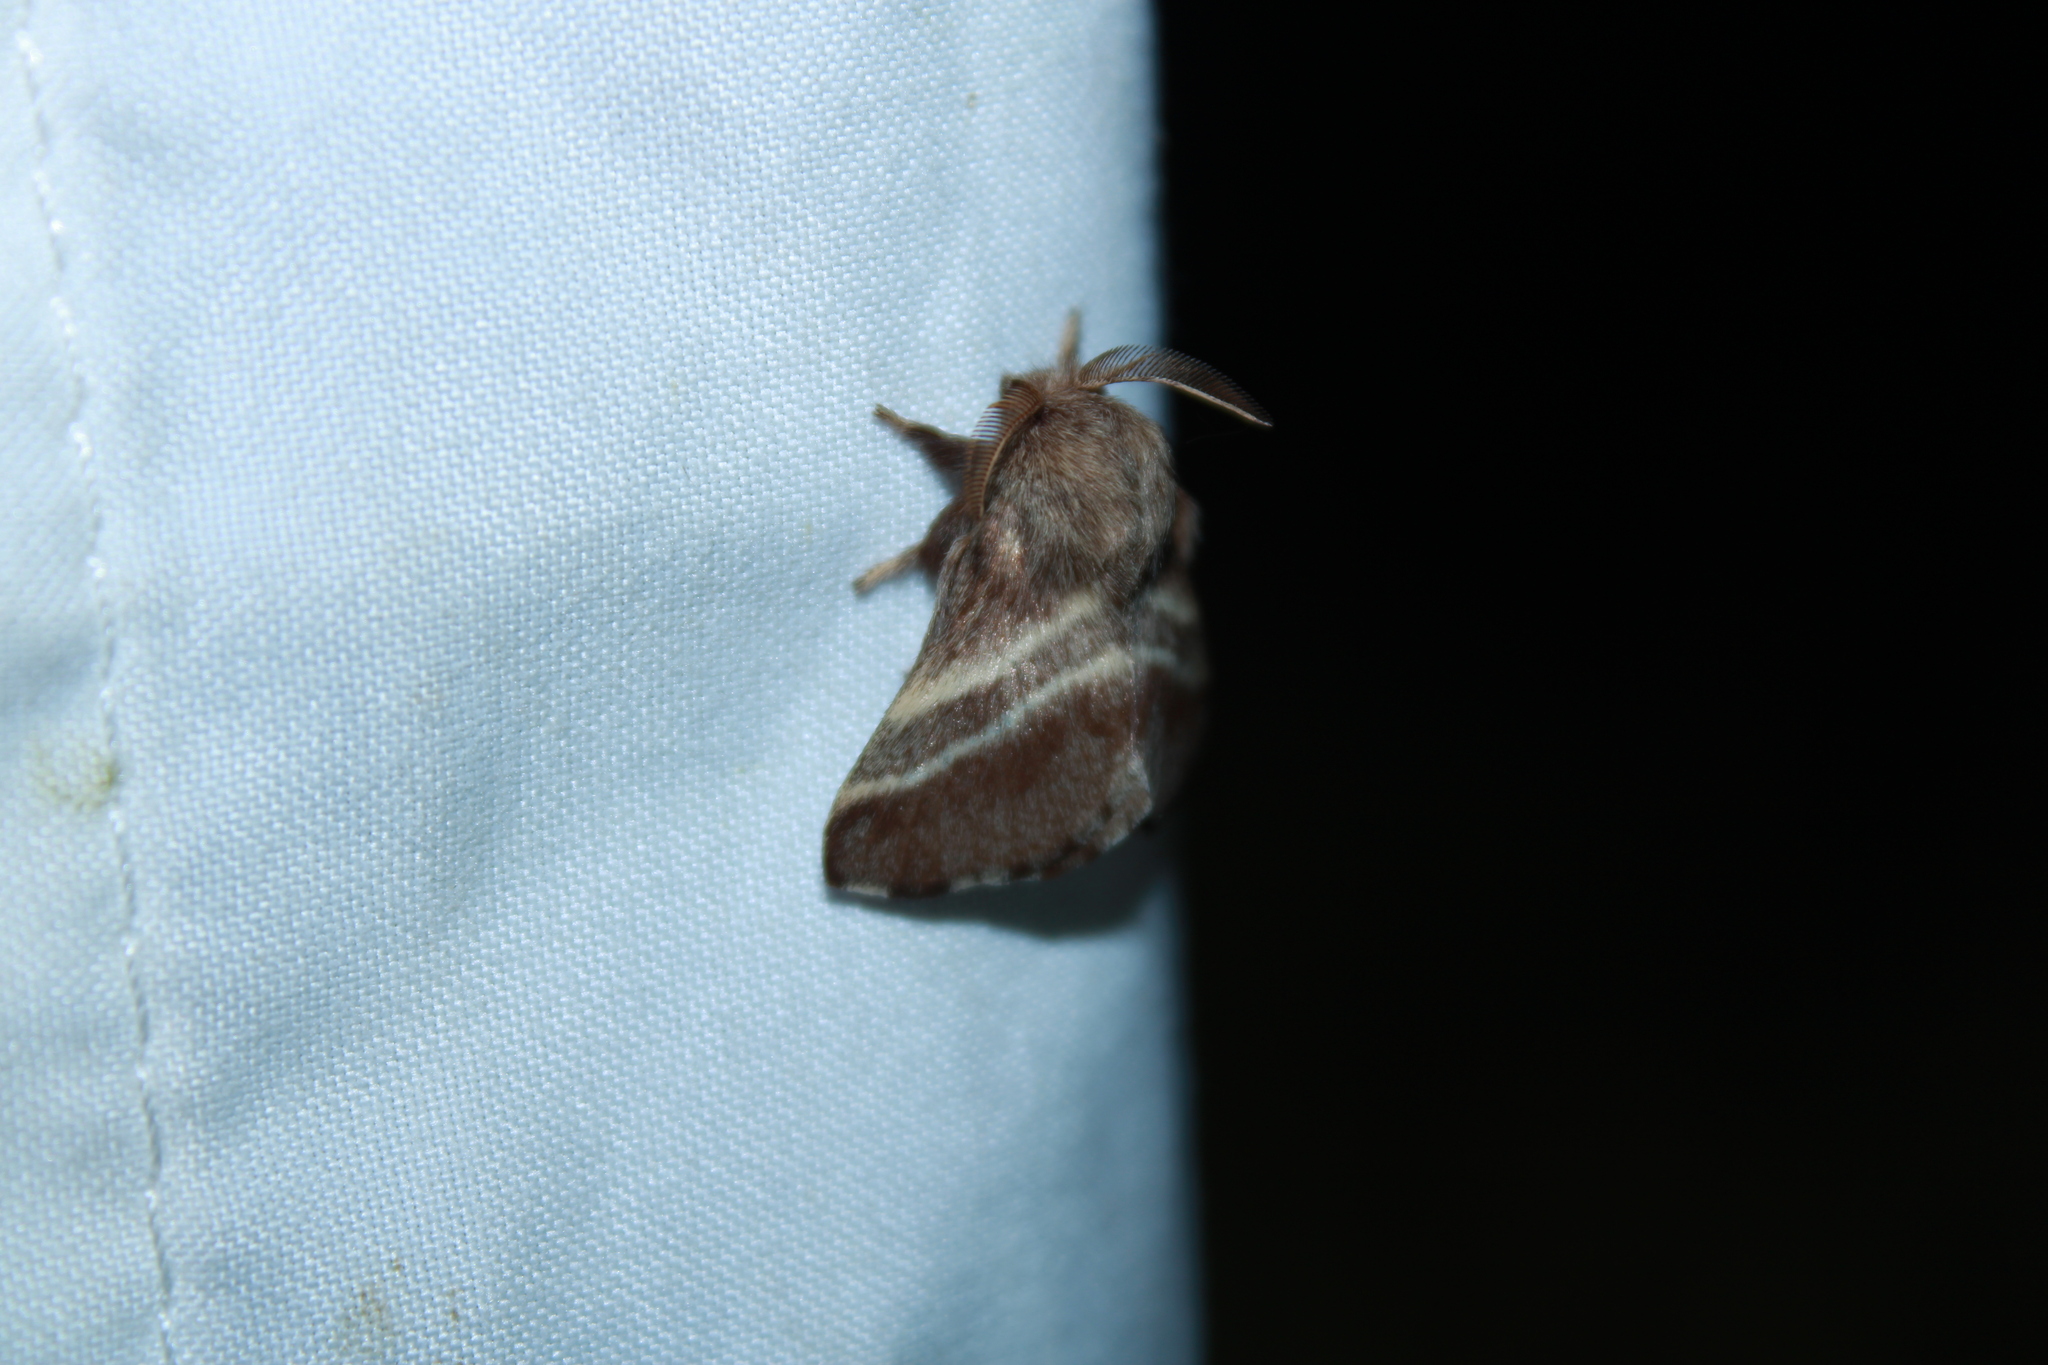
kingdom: Animalia
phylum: Arthropoda
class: Insecta
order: Lepidoptera
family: Lasiocampidae
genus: Malacosoma
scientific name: Malacosoma americana
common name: Eastern tent caterpillar moth
